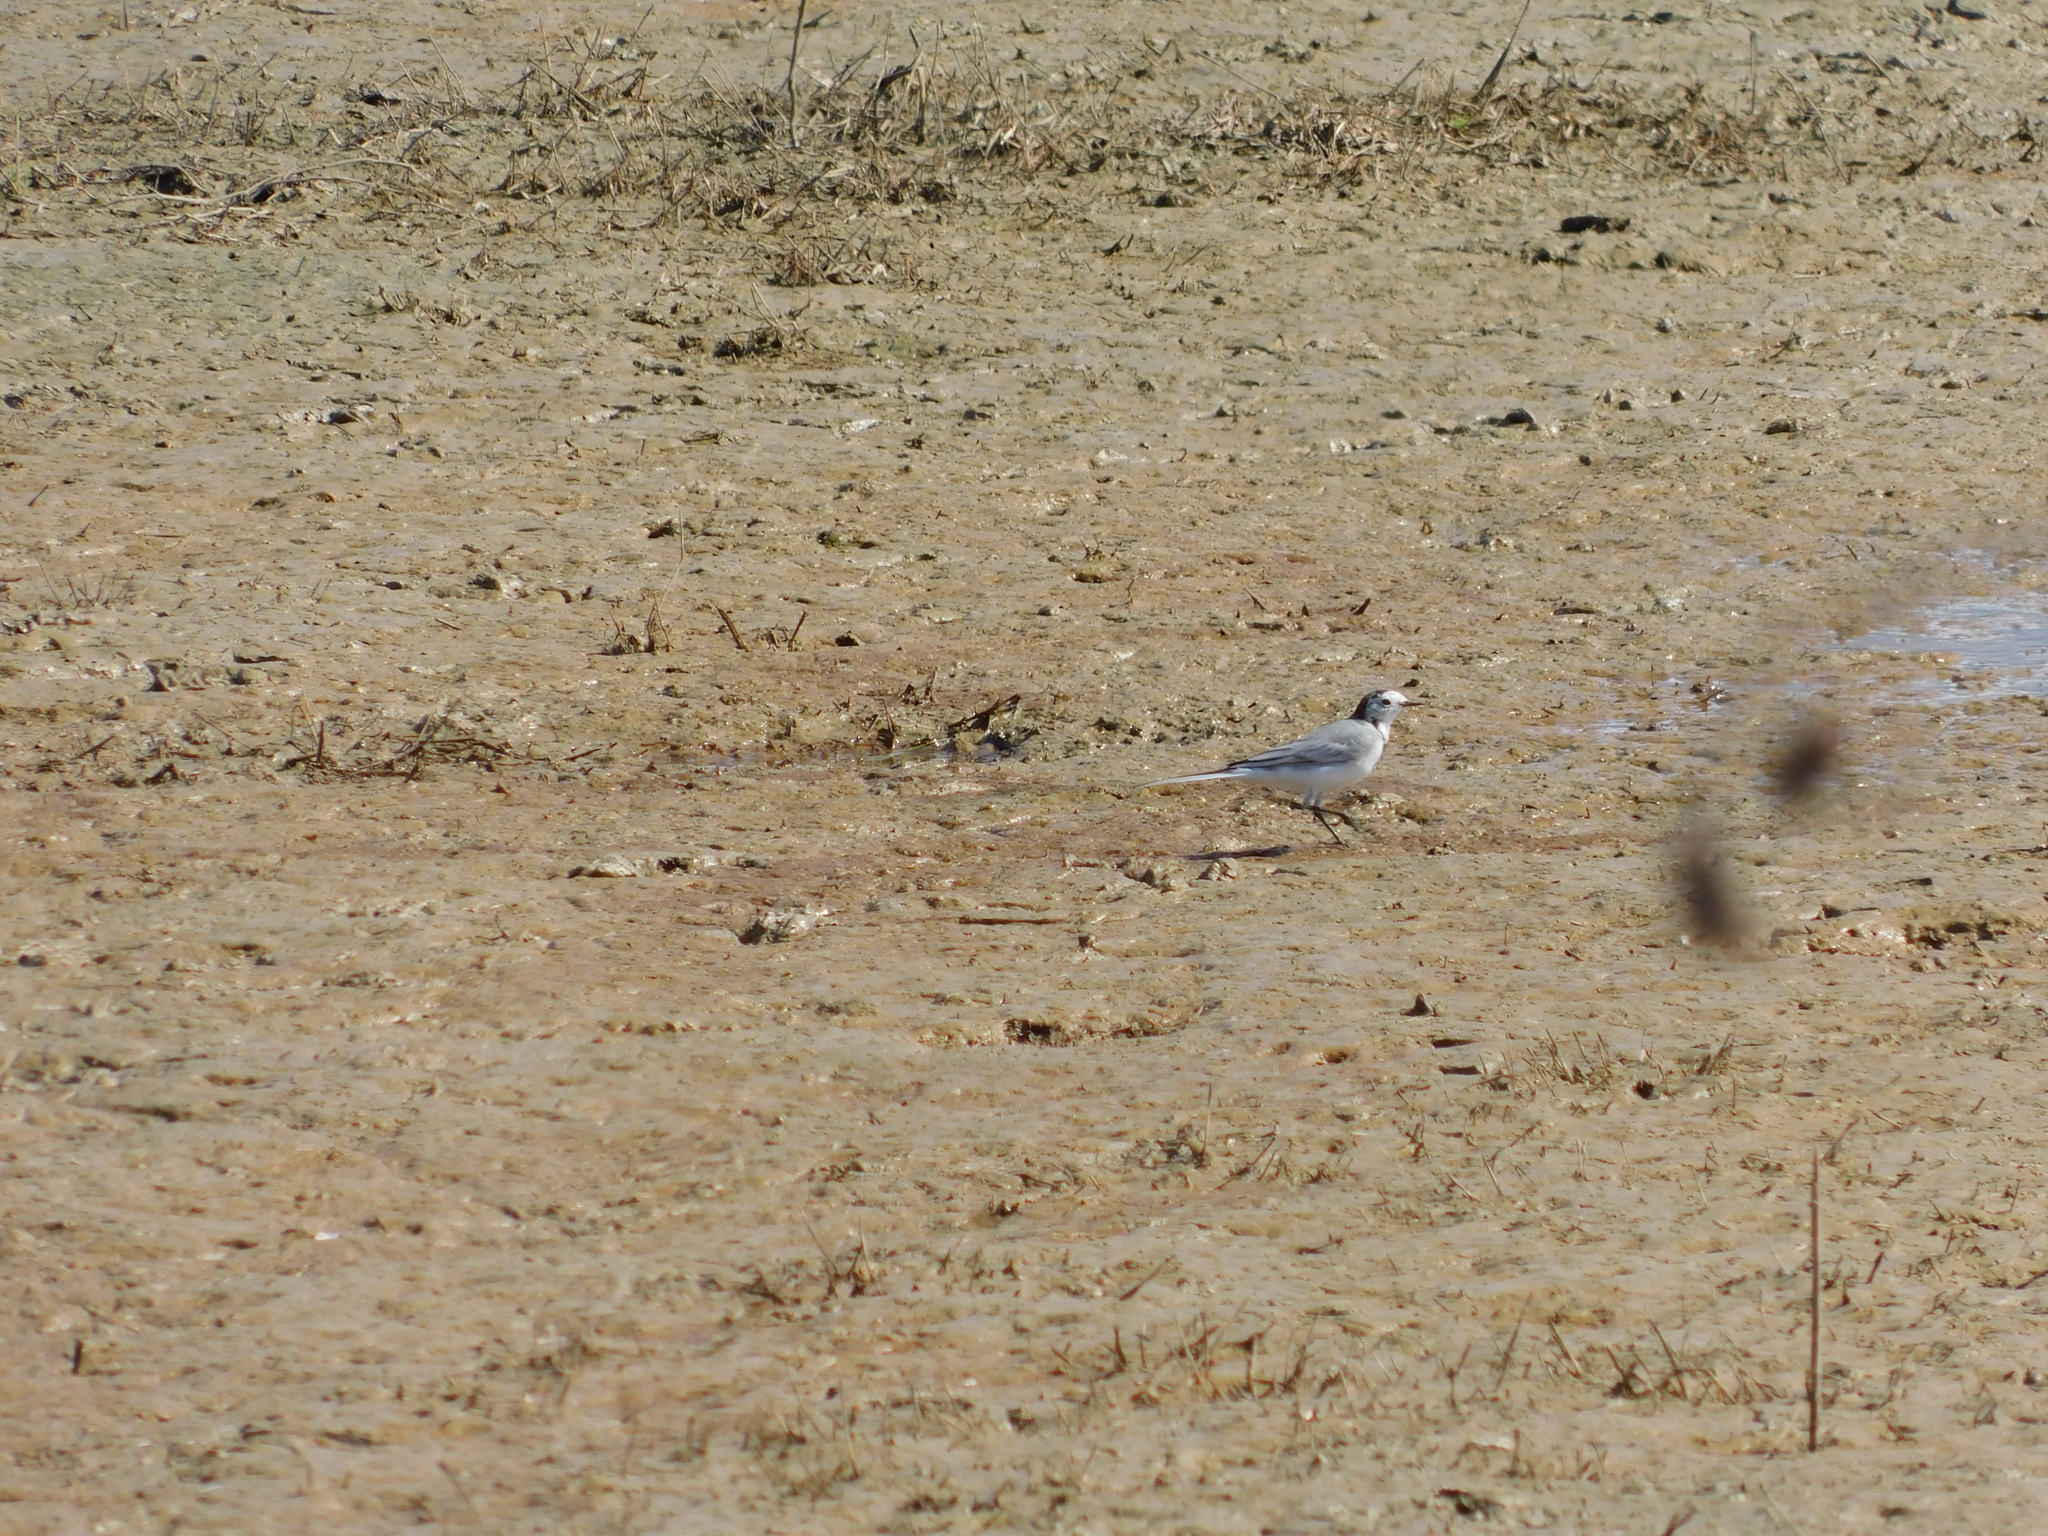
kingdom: Animalia
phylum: Chordata
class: Aves
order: Passeriformes
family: Motacillidae
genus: Motacilla
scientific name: Motacilla alba
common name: White wagtail
